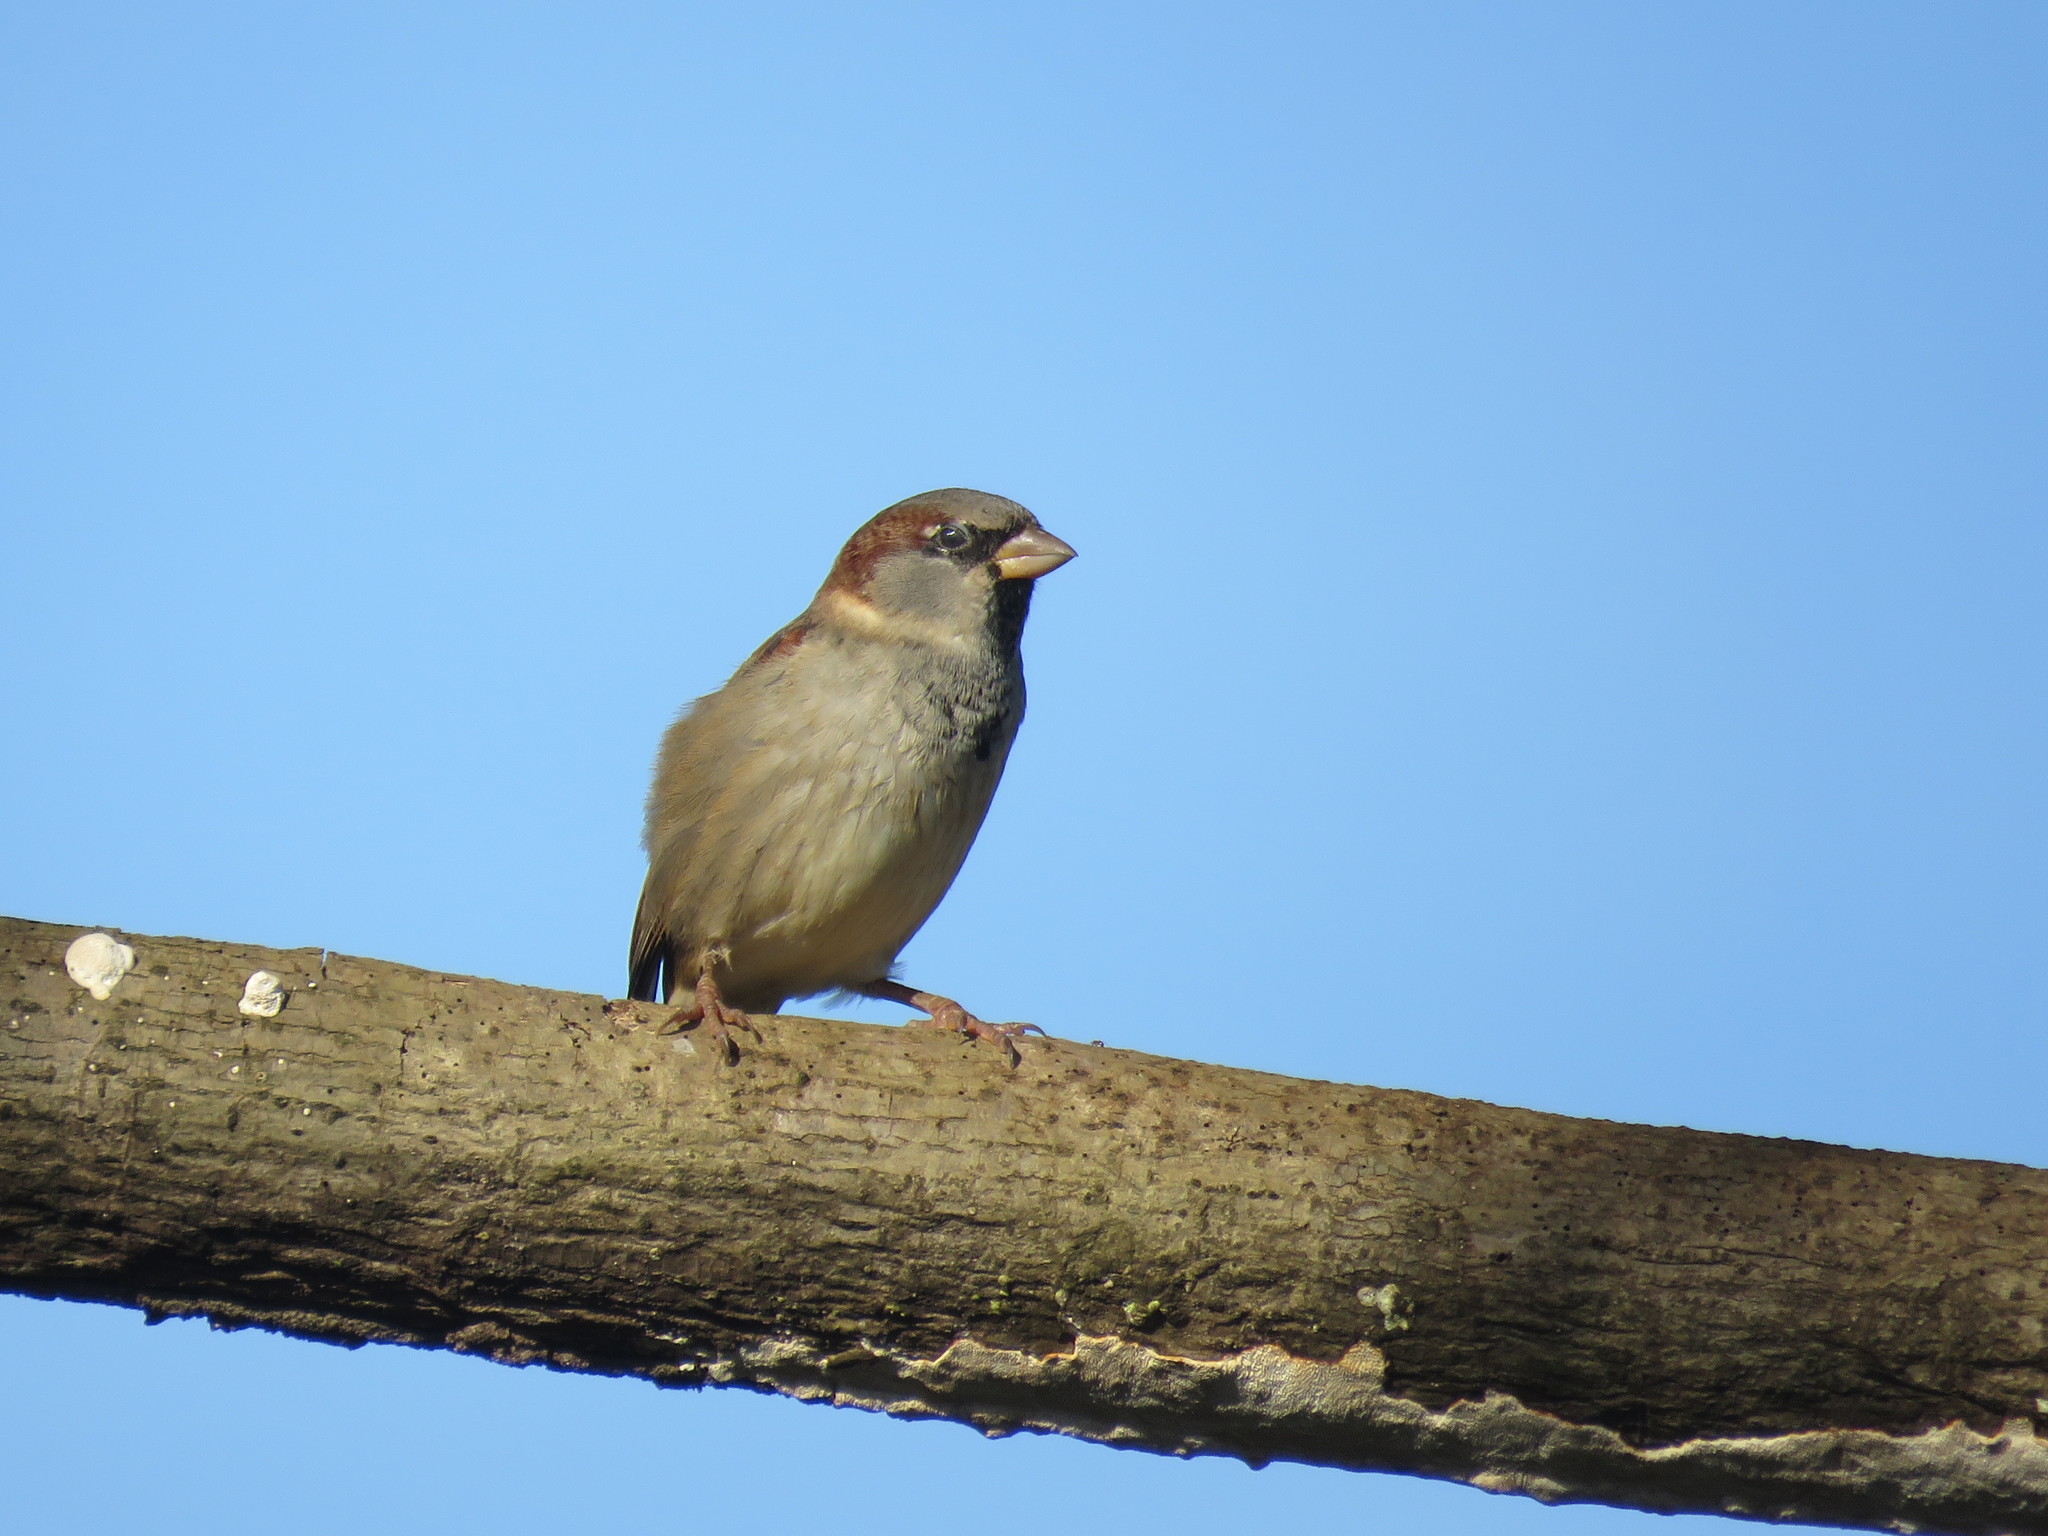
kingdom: Animalia
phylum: Chordata
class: Aves
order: Passeriformes
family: Passeridae
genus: Passer
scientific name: Passer domesticus
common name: House sparrow
